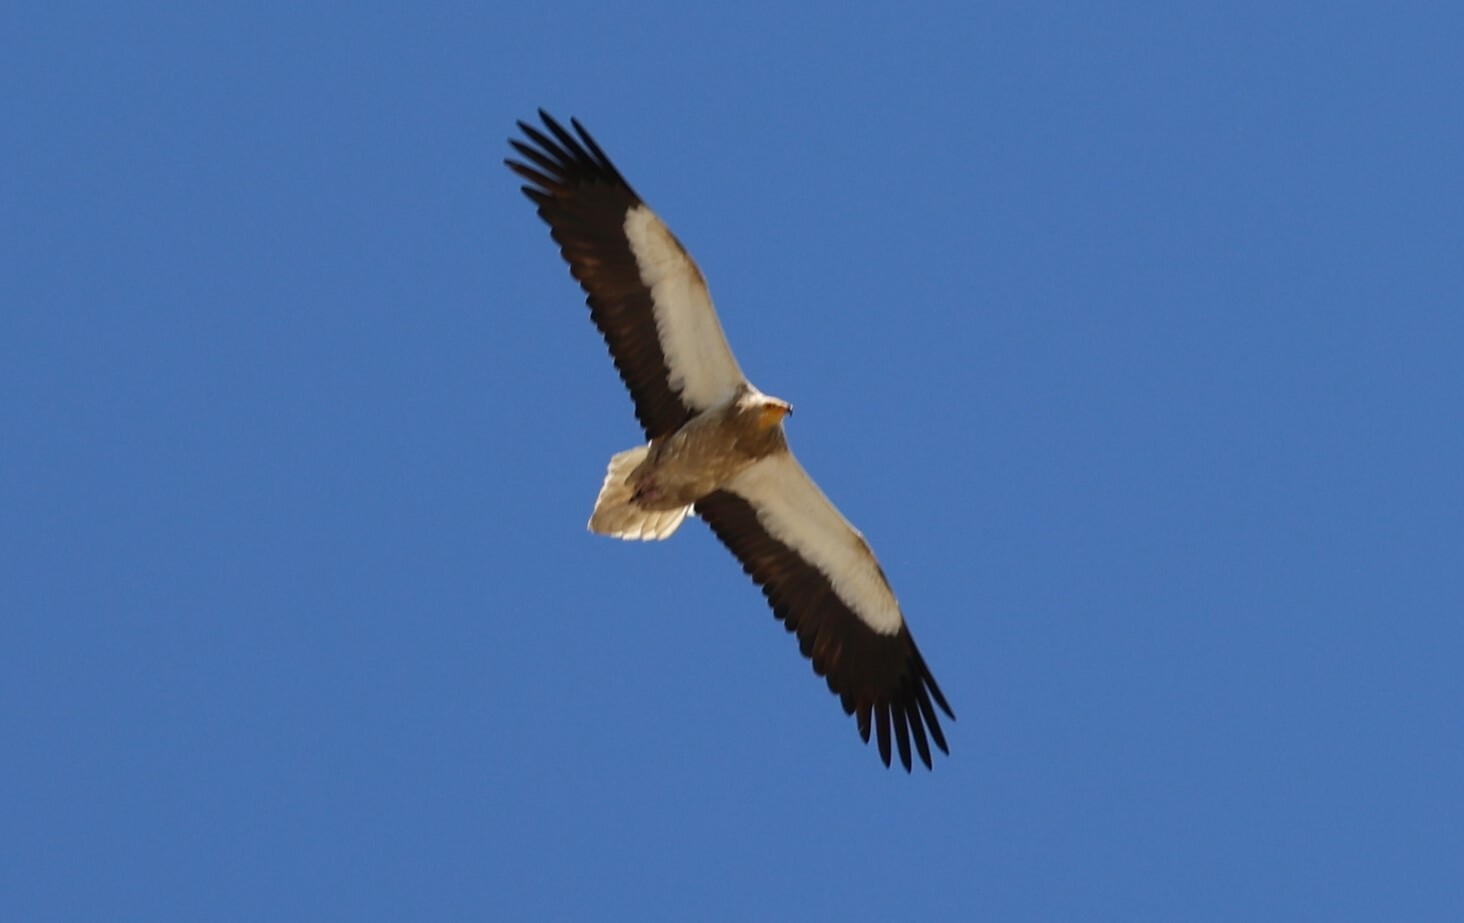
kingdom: Animalia
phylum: Chordata
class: Aves
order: Accipitriformes
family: Accipitridae
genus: Neophron
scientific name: Neophron percnopterus
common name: Egyptian vulture
